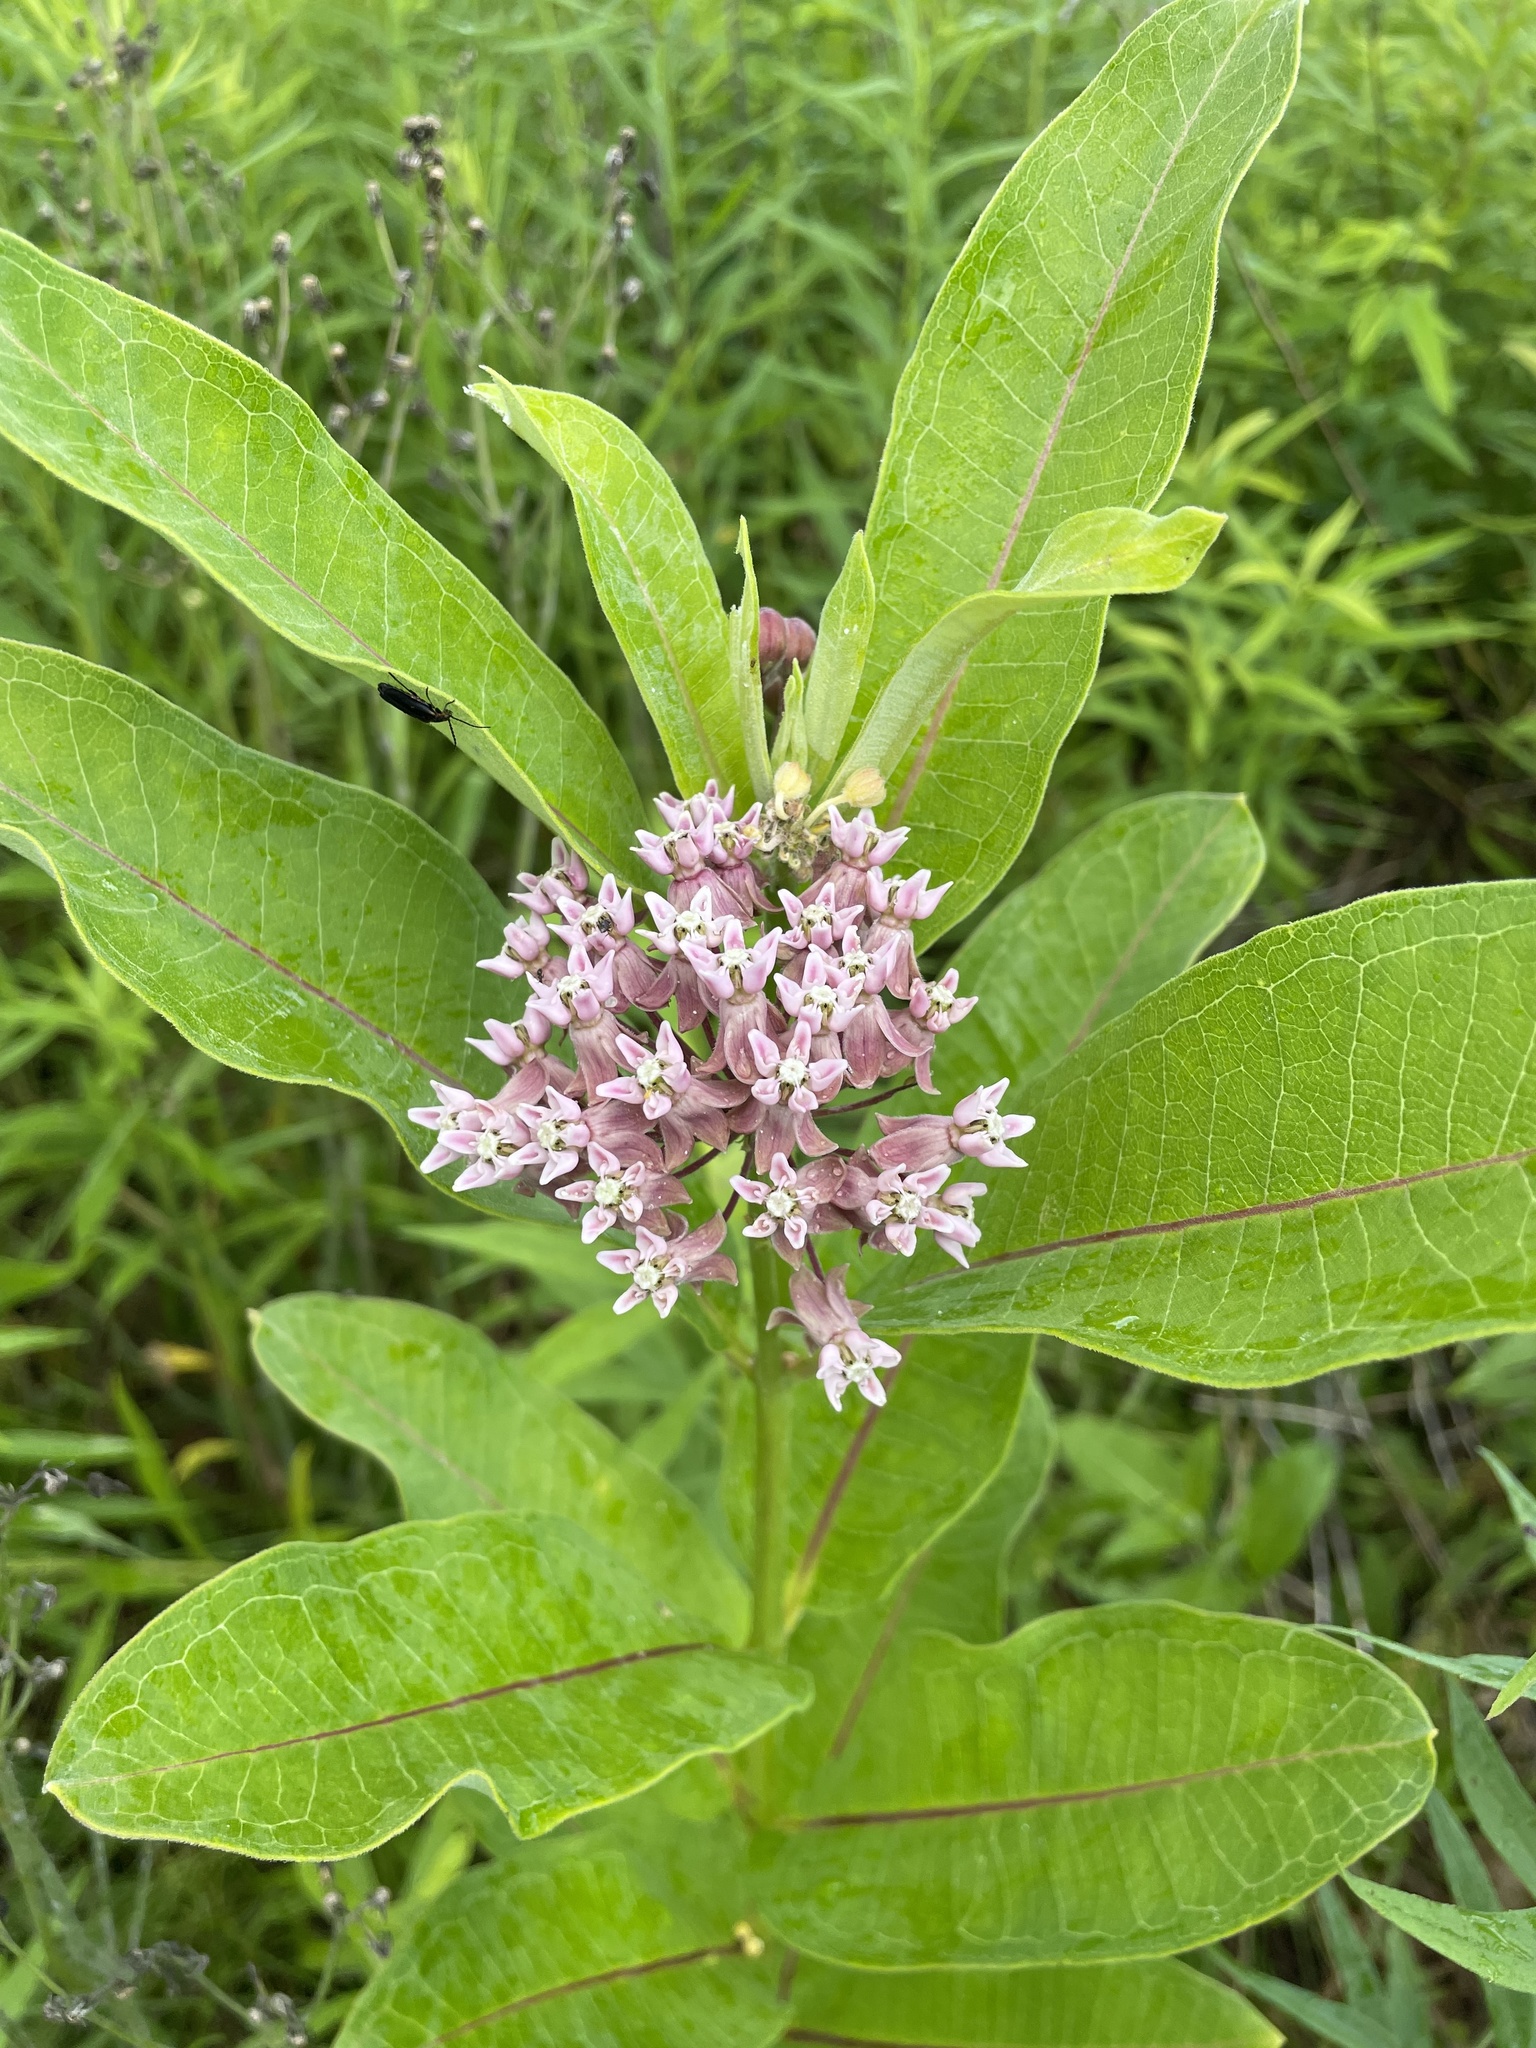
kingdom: Plantae
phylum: Tracheophyta
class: Magnoliopsida
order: Gentianales
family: Apocynaceae
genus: Asclepias
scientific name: Asclepias syriaca
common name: Common milkweed
